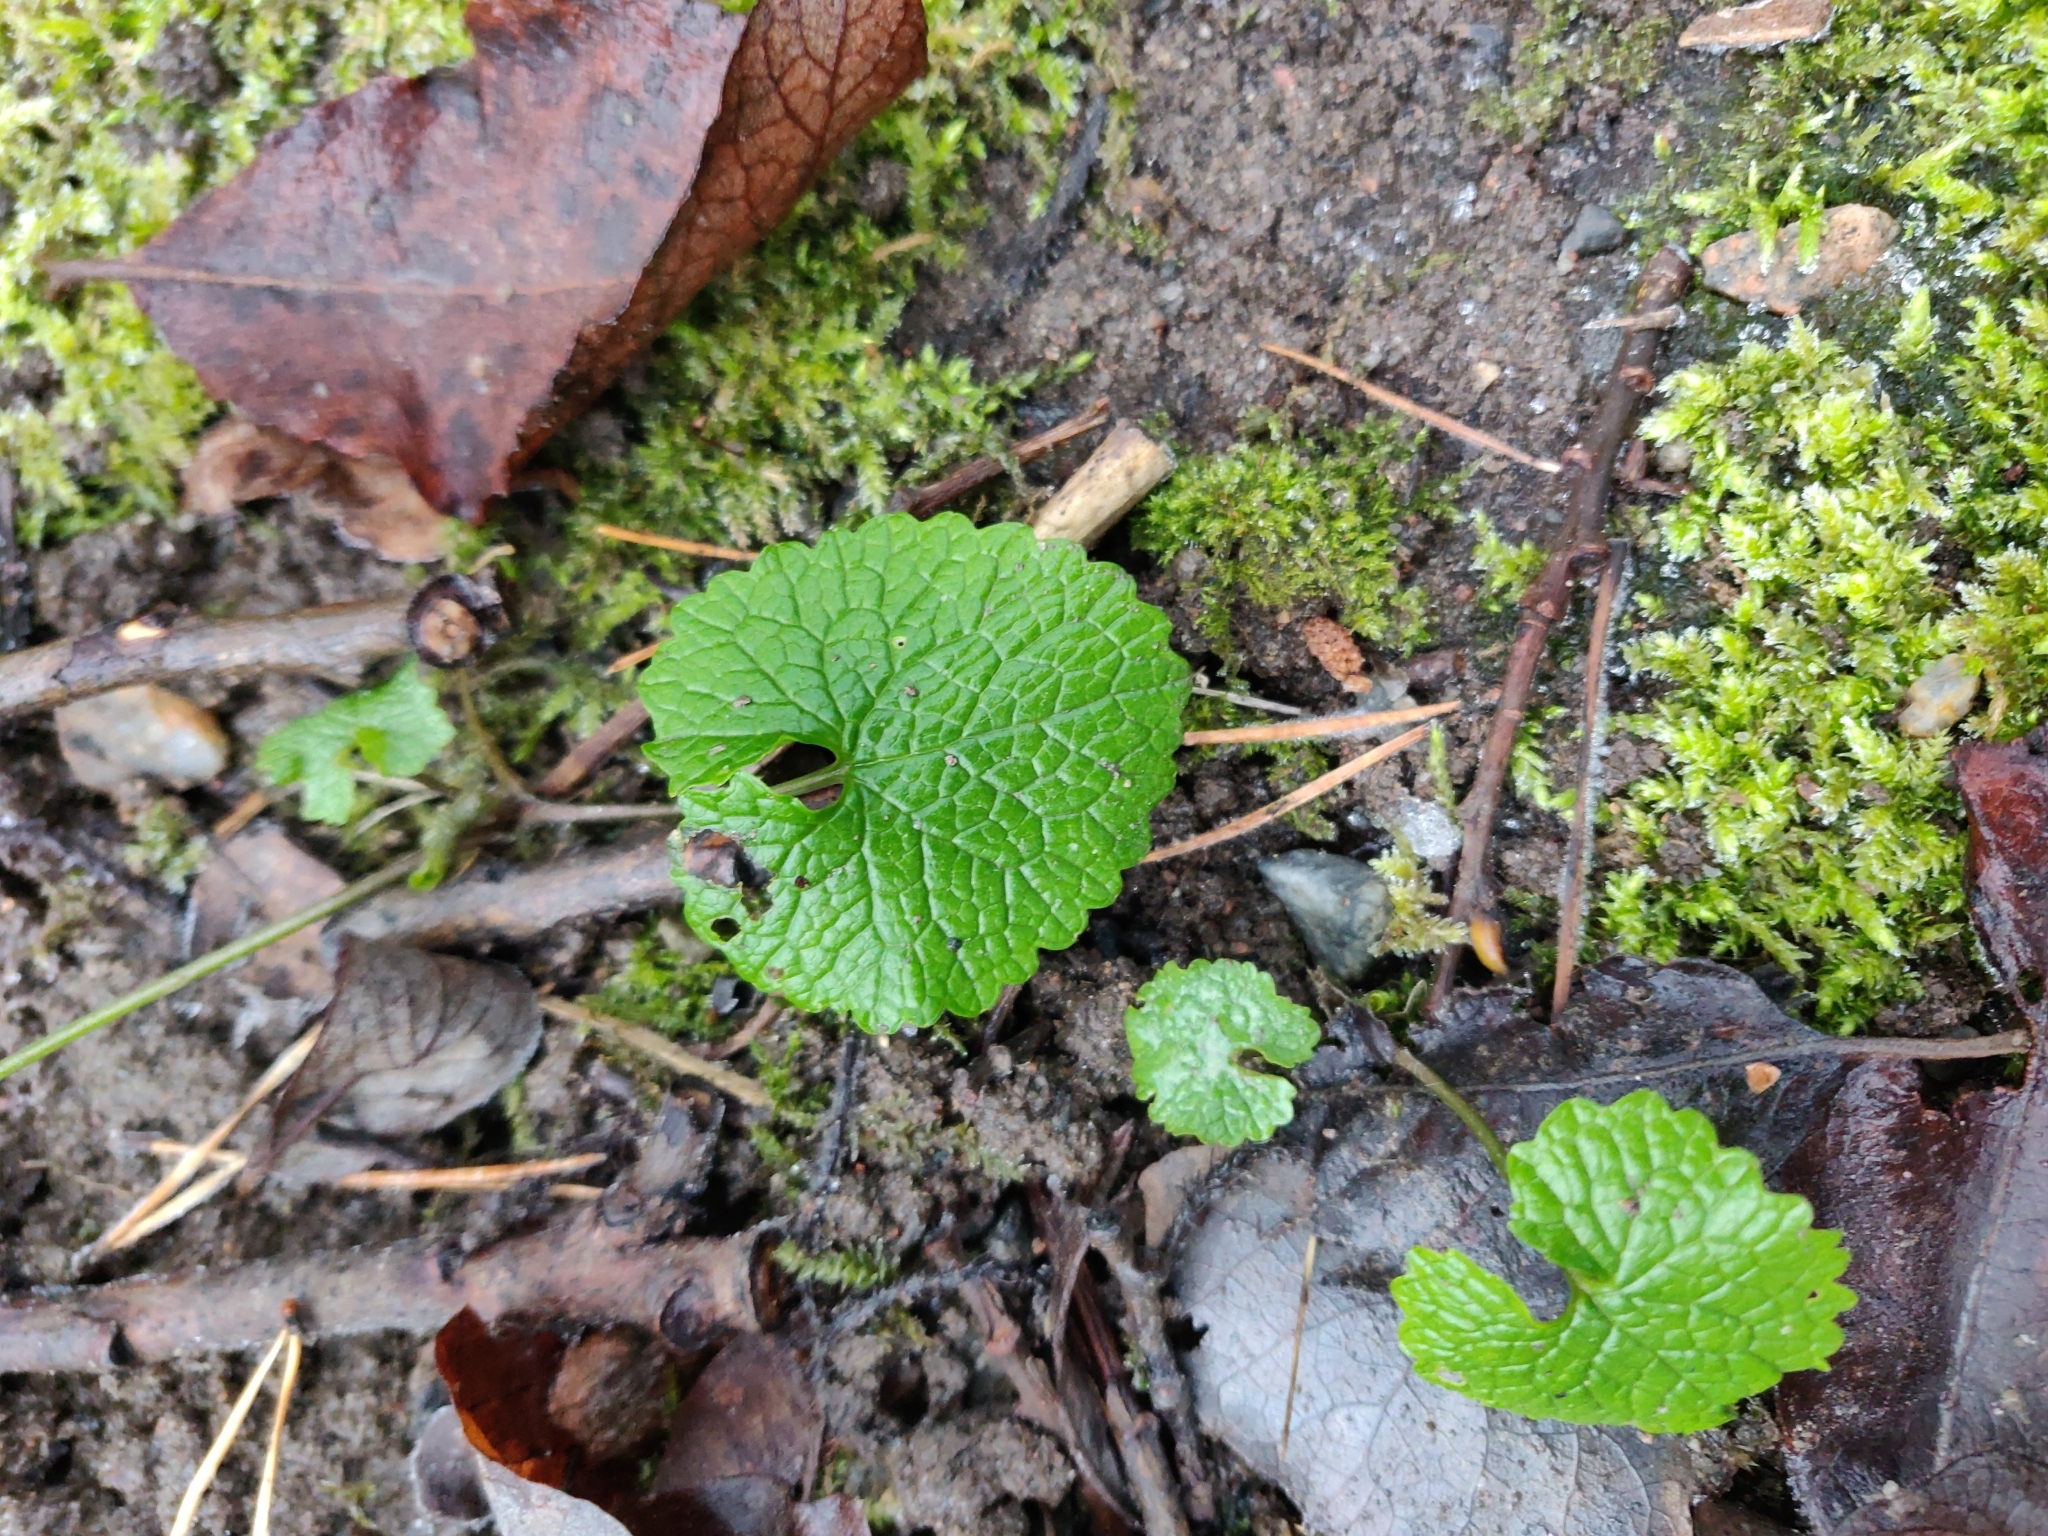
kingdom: Plantae
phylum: Tracheophyta
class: Magnoliopsida
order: Brassicales
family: Brassicaceae
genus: Alliaria
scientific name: Alliaria petiolata
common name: Garlic mustard
